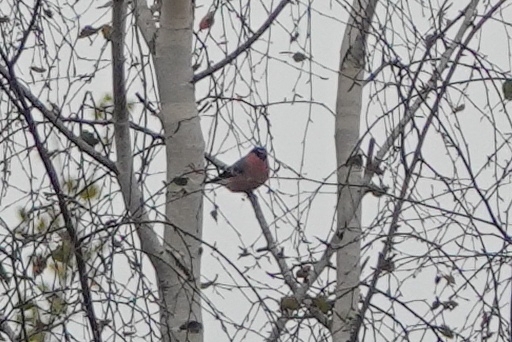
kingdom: Animalia
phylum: Chordata
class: Aves
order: Passeriformes
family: Fringillidae
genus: Pyrrhula
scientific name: Pyrrhula pyrrhula
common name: Eurasian bullfinch
